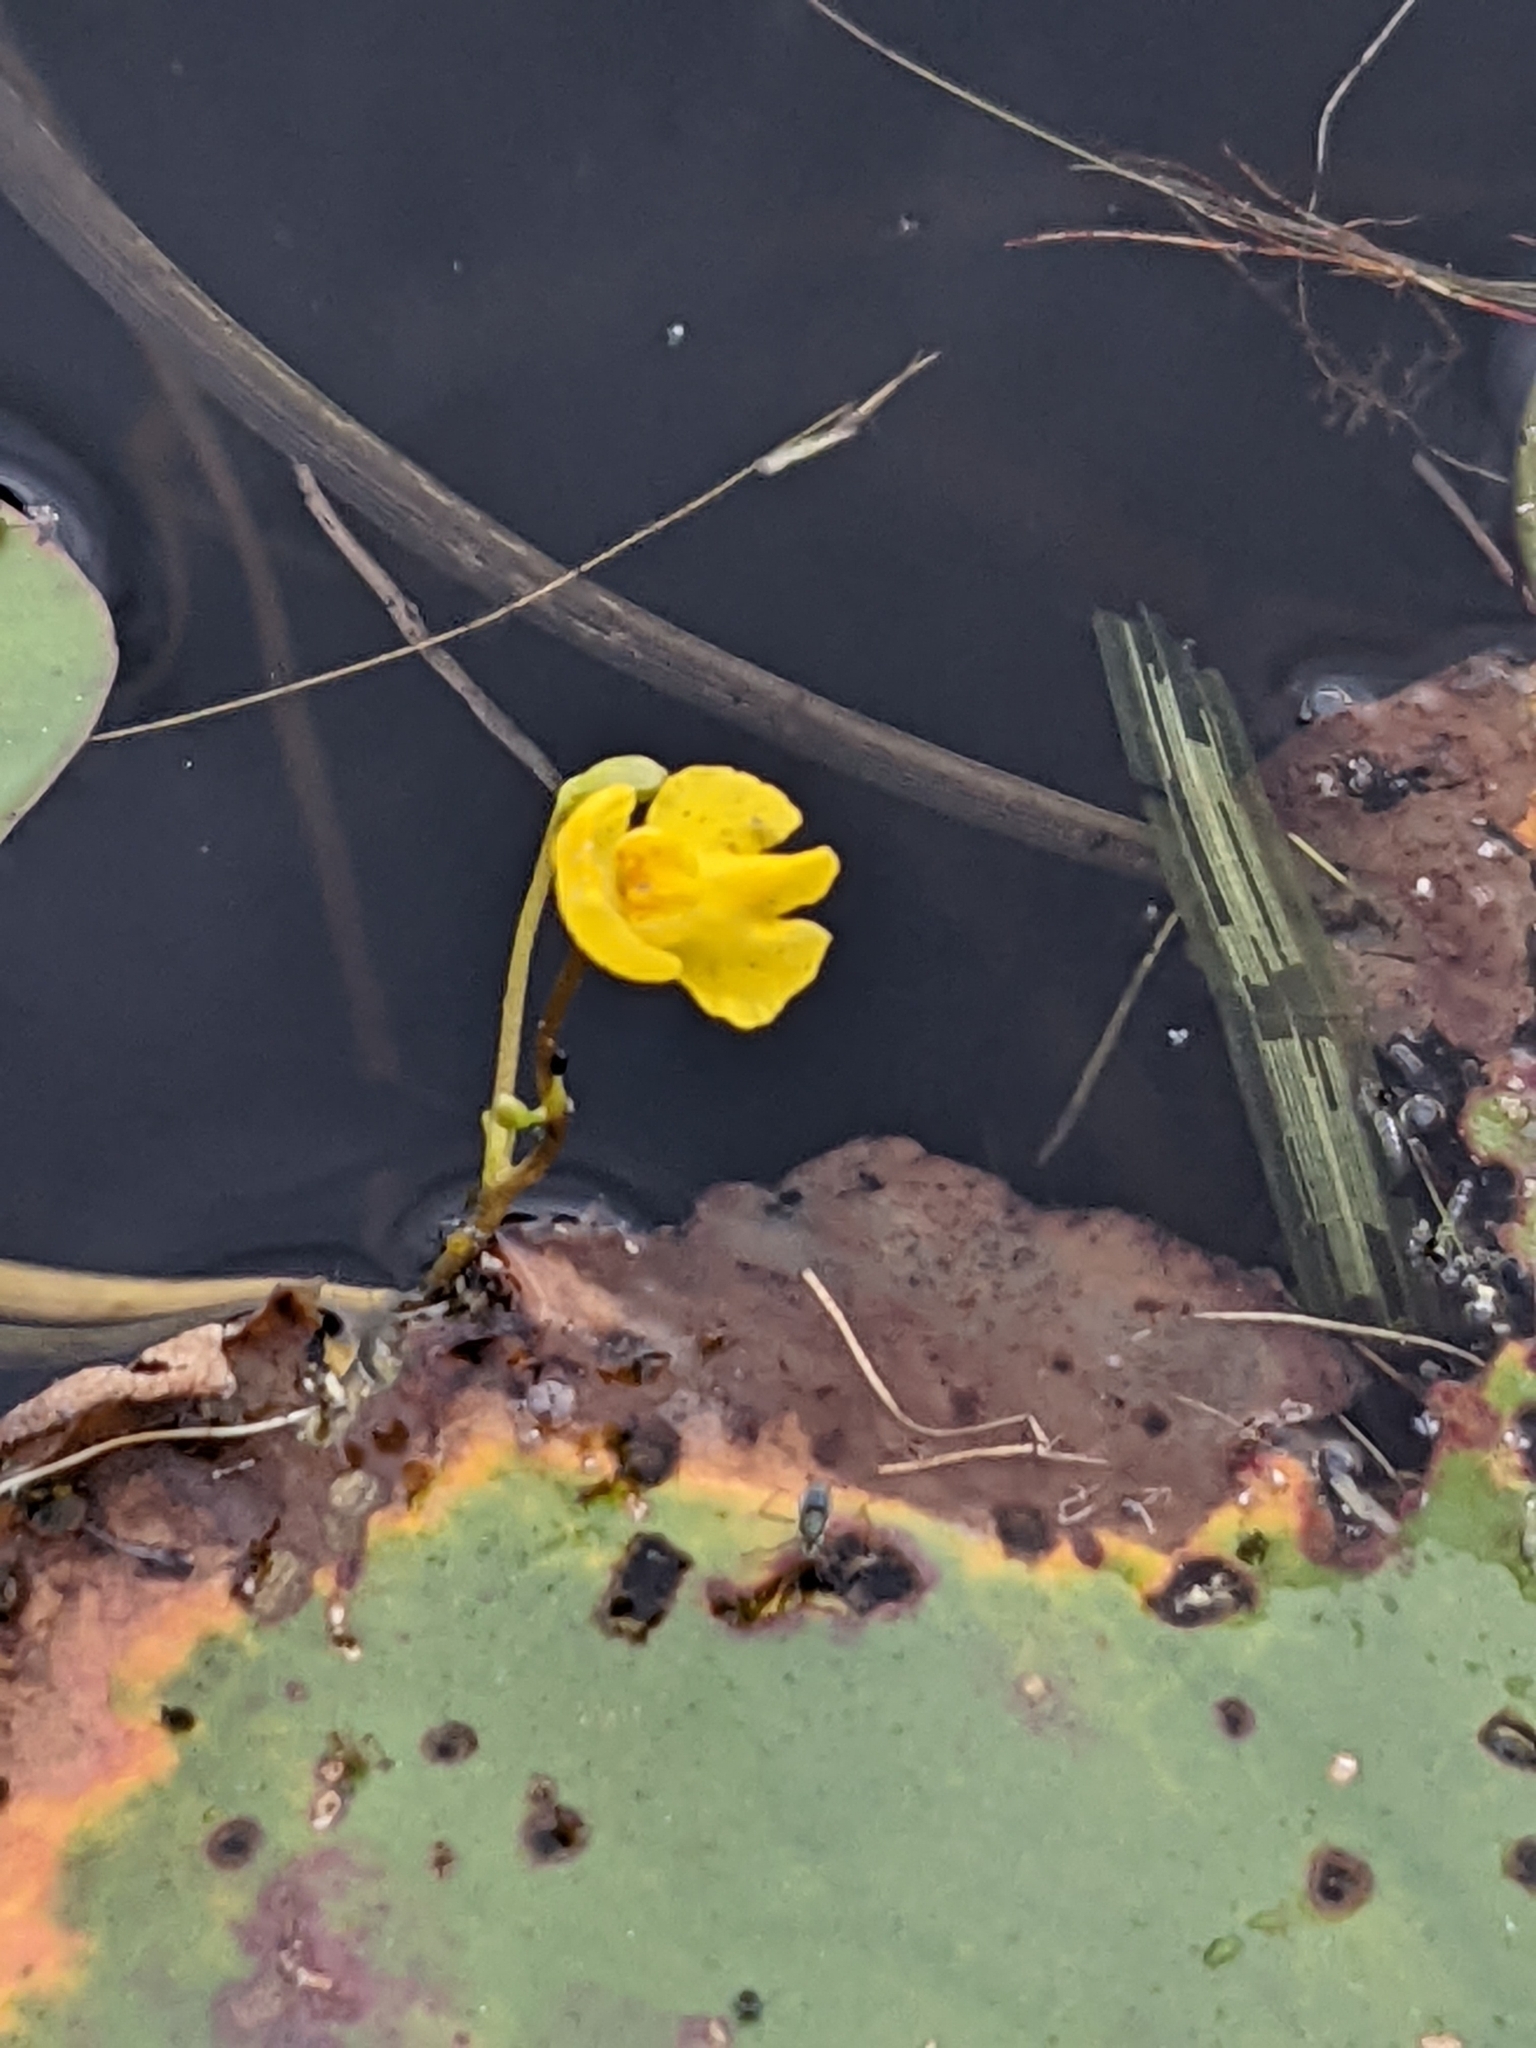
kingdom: Plantae
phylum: Tracheophyta
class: Magnoliopsida
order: Lamiales
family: Lentibulariaceae
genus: Utricularia
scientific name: Utricularia inflata
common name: Floating bladderwort
